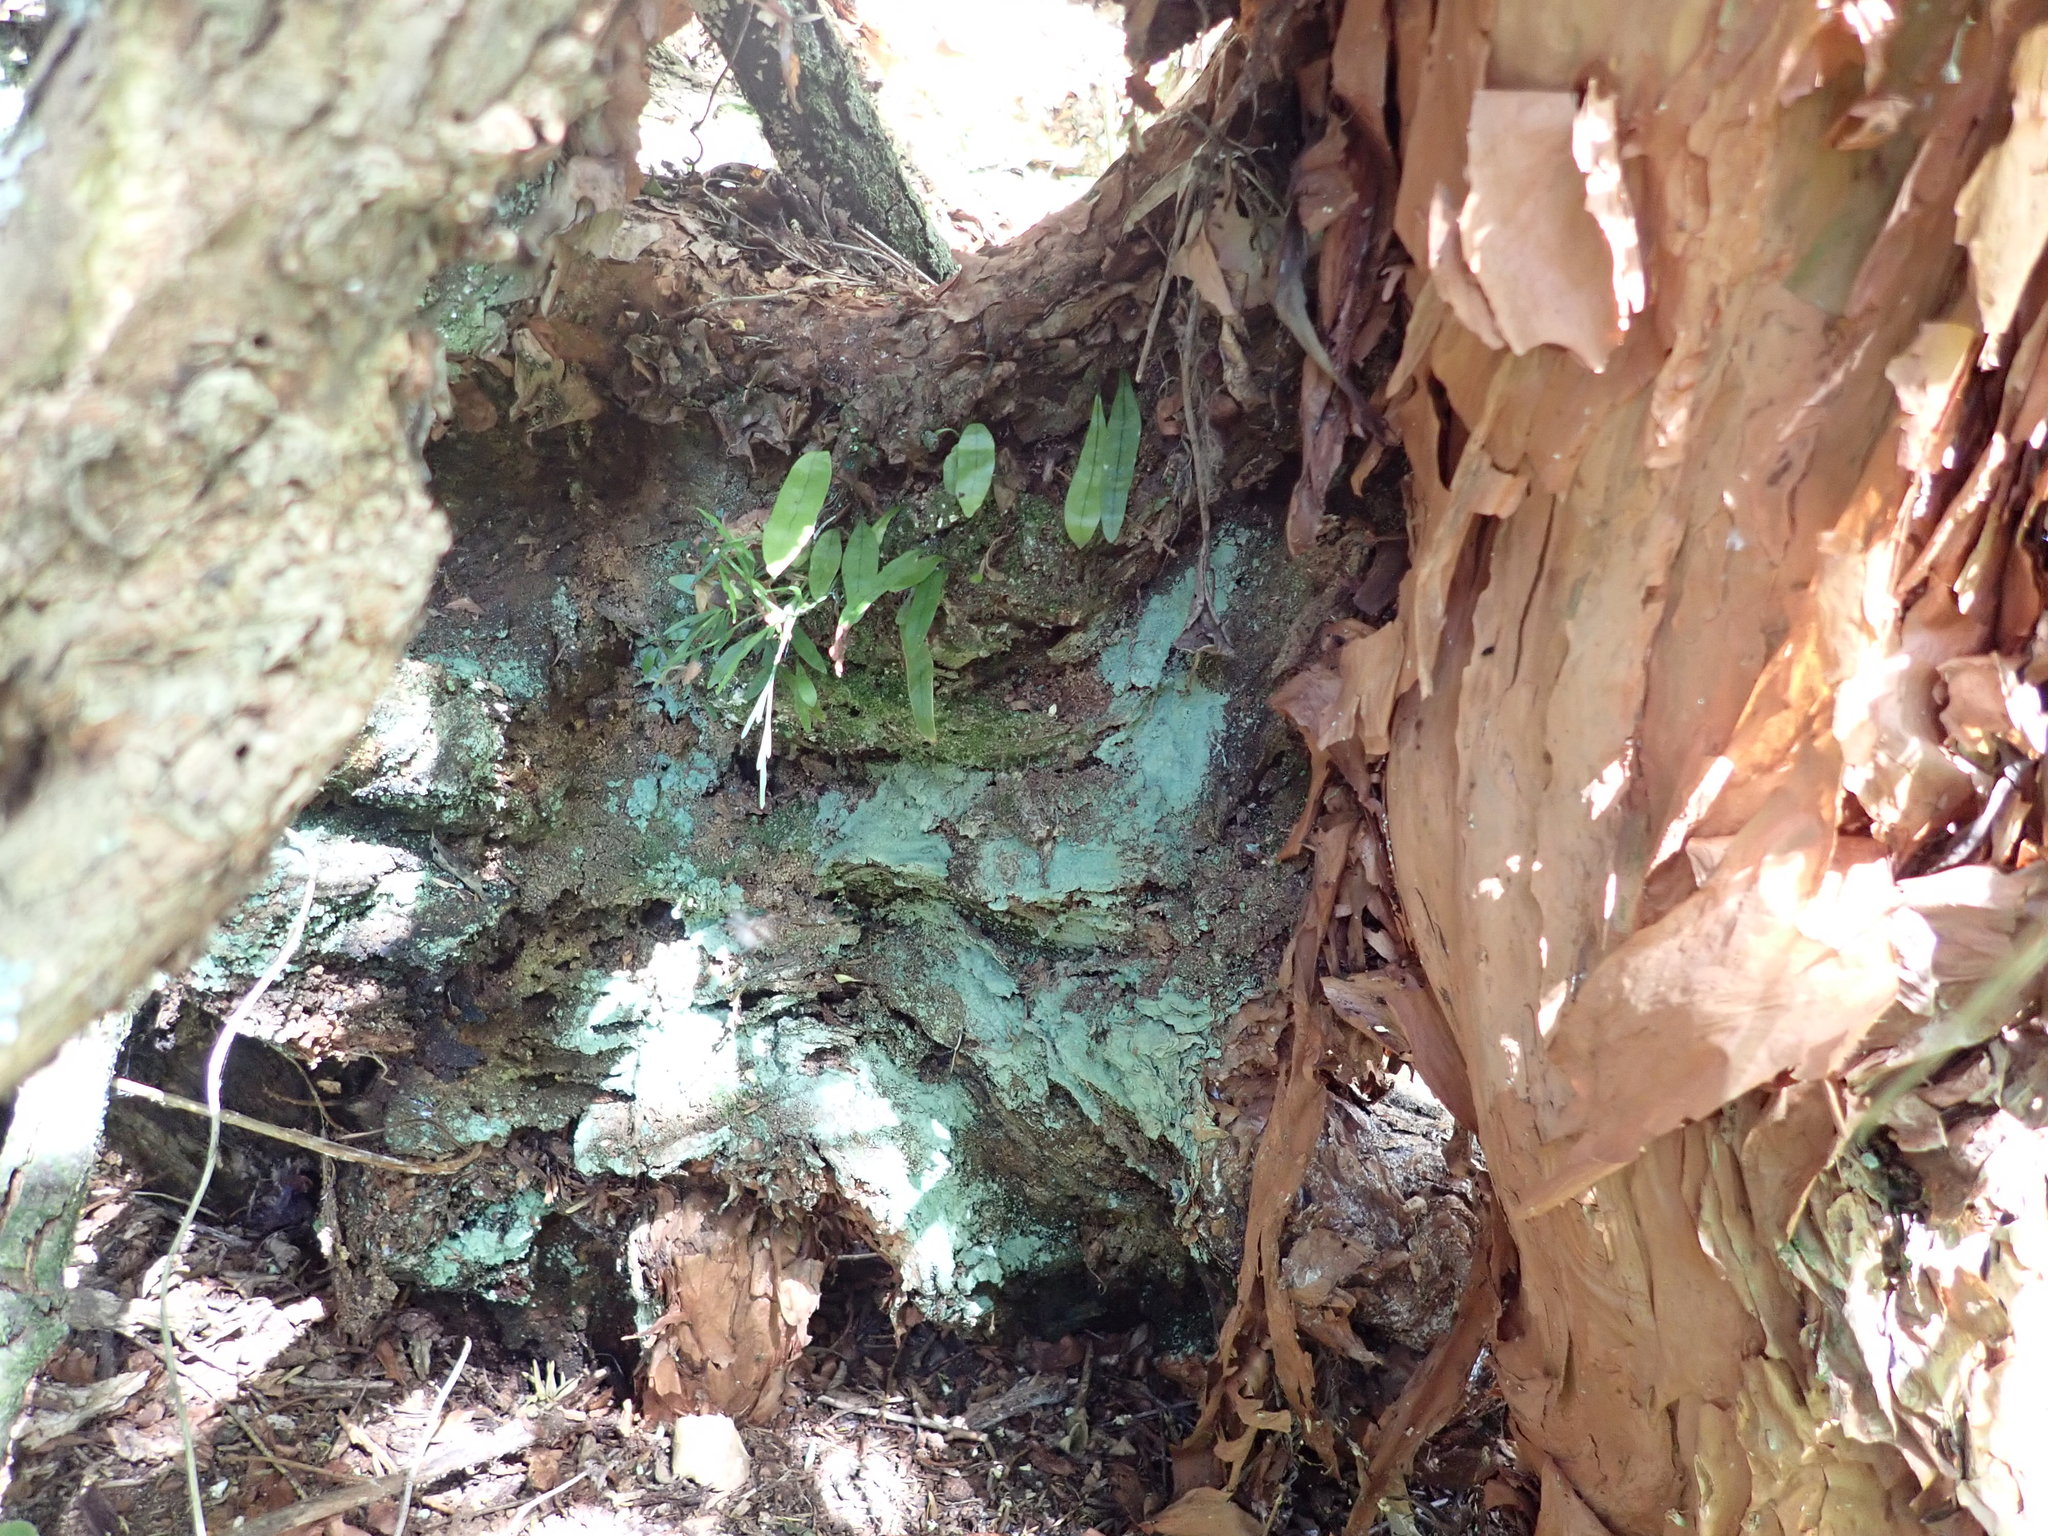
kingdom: Plantae
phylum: Tracheophyta
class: Polypodiopsida
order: Polypodiales
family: Polypodiaceae
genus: Lecanopteris
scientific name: Lecanopteris pustulata
